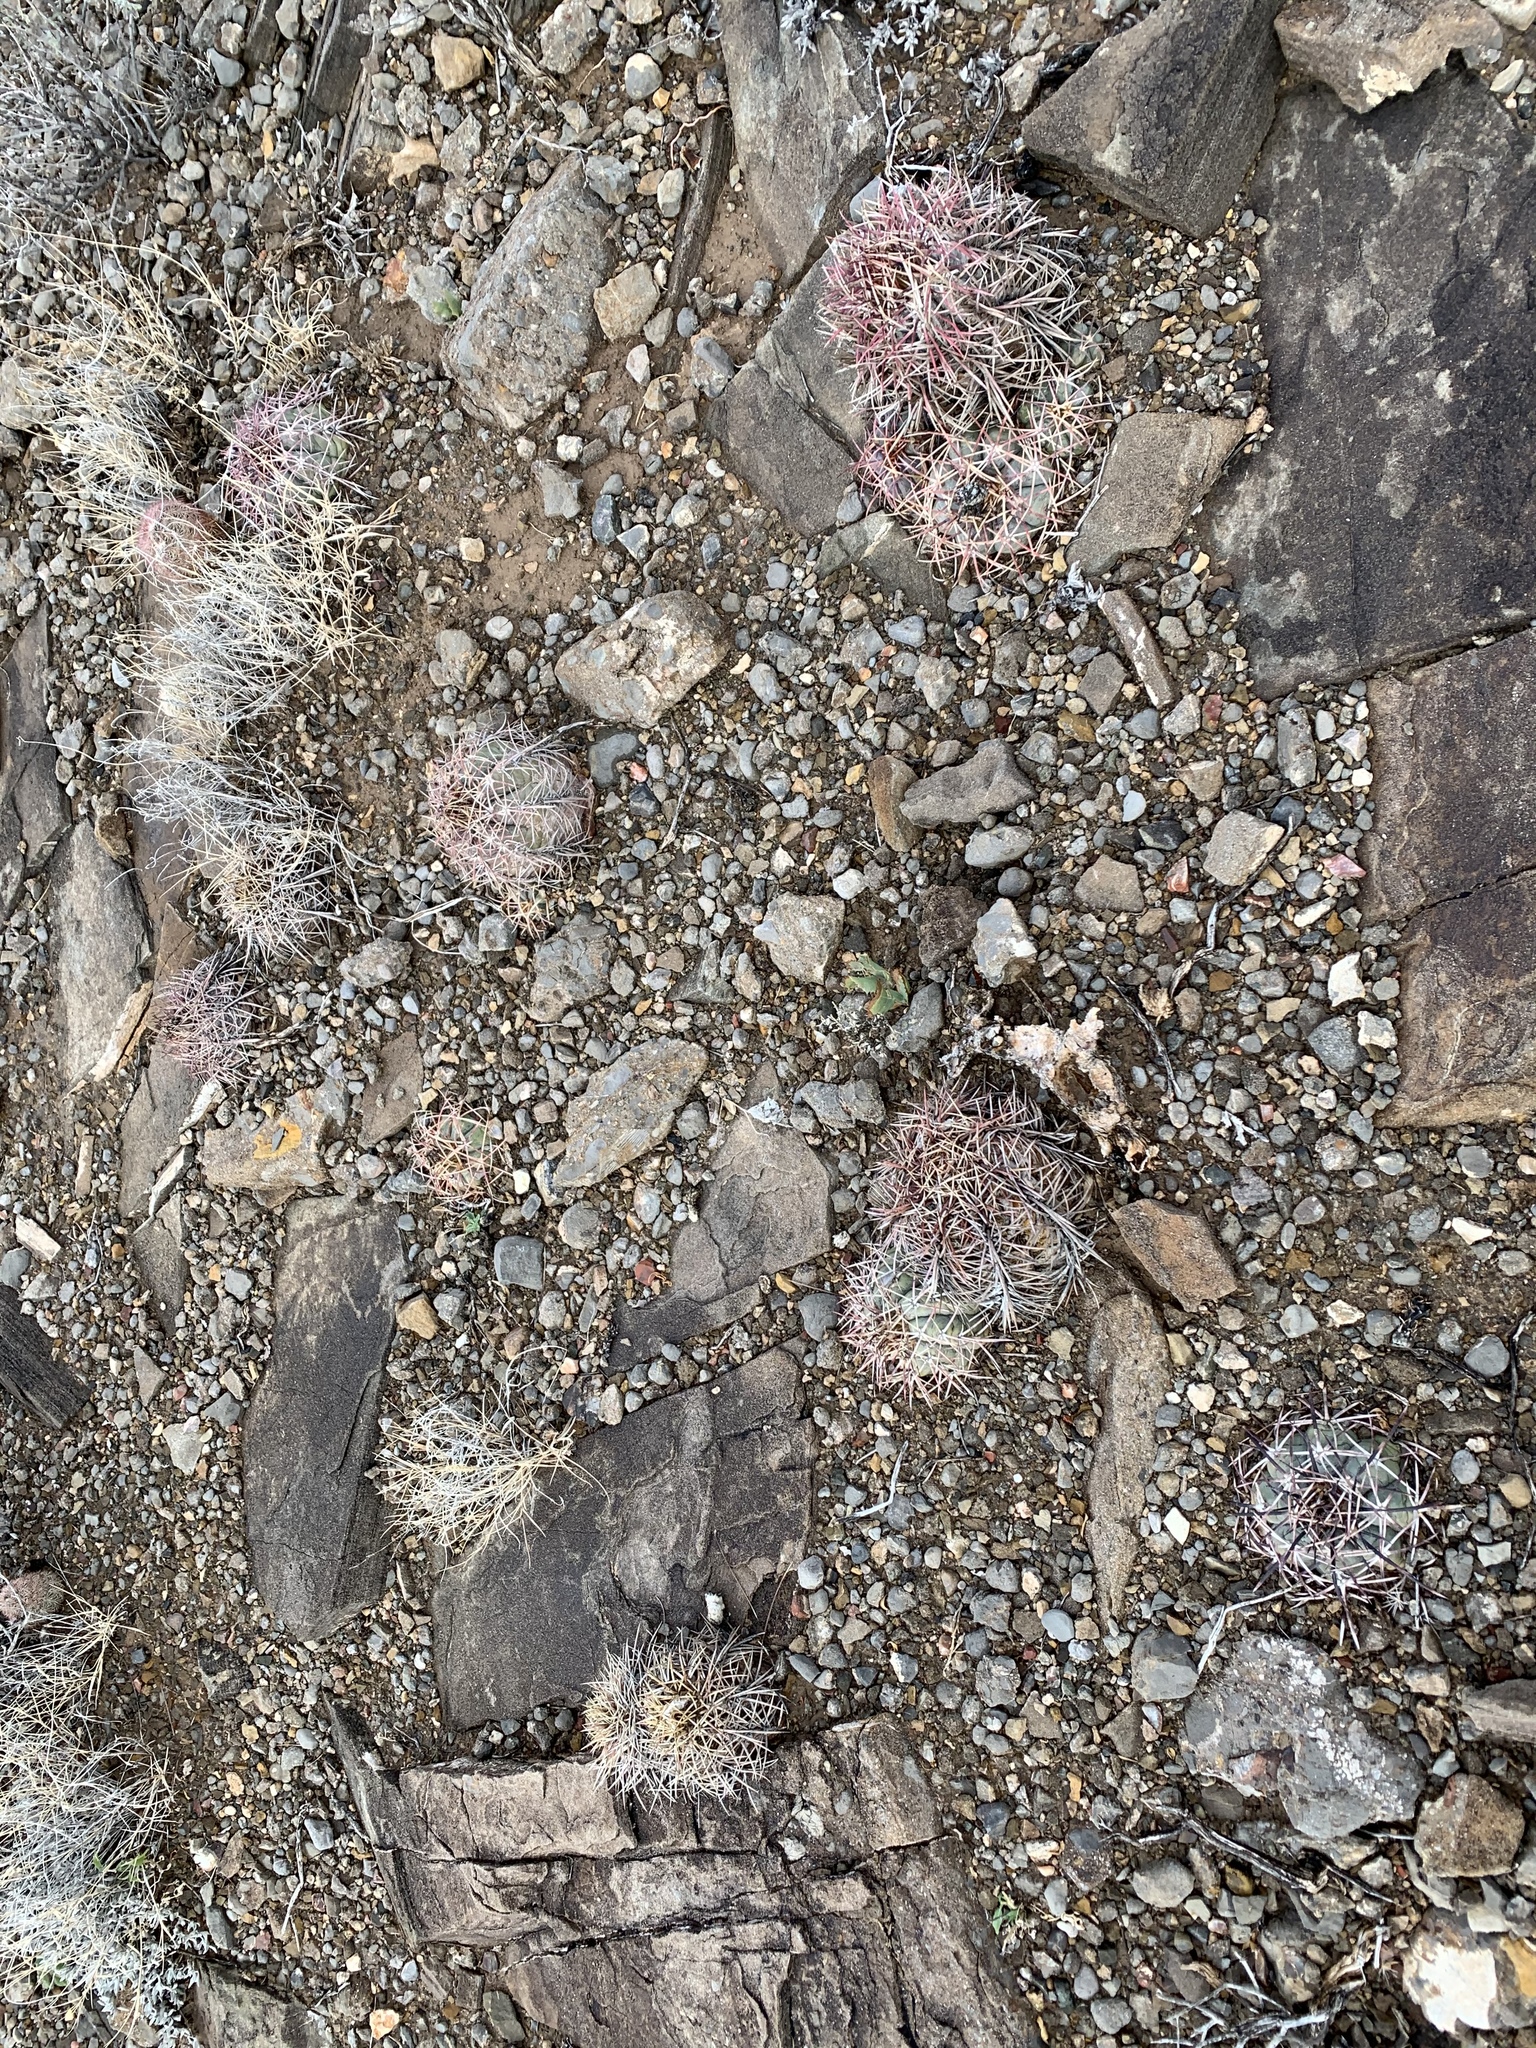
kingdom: Plantae
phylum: Tracheophyta
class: Magnoliopsida
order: Caryophyllales
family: Cactaceae
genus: Echinocactus
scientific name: Echinocactus horizonthalonius
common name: Devilshead
